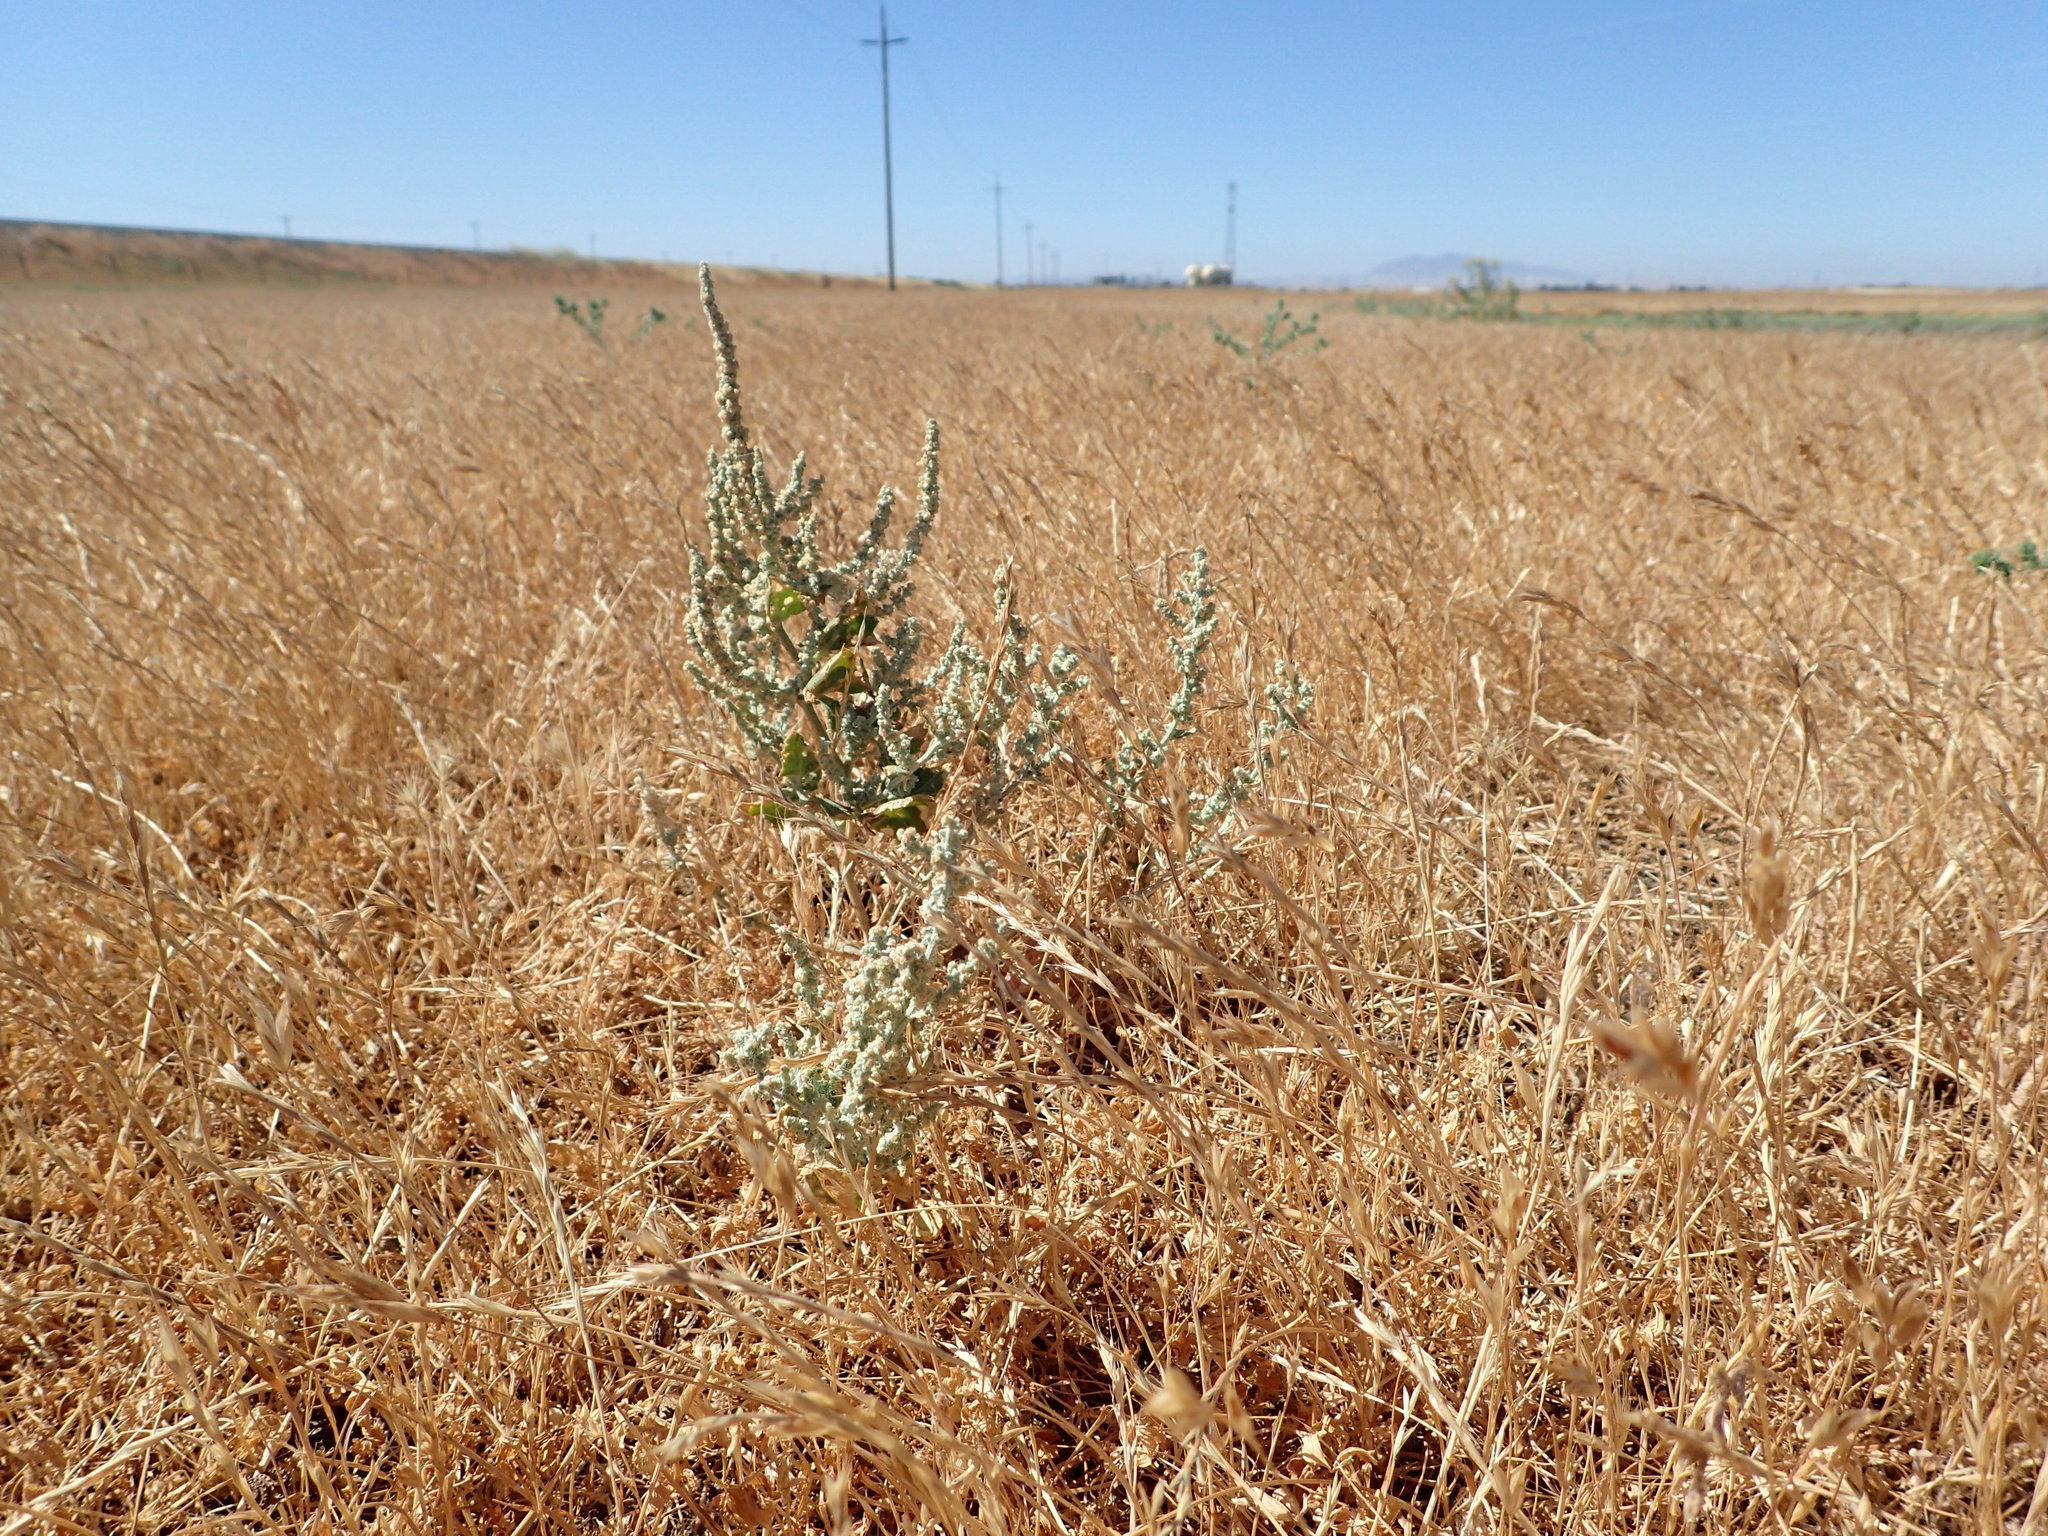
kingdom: Plantae
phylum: Tracheophyta
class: Magnoliopsida
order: Caryophyllales
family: Amaranthaceae
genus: Extriplex
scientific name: Extriplex joaquinana
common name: San joaquin saltbush
